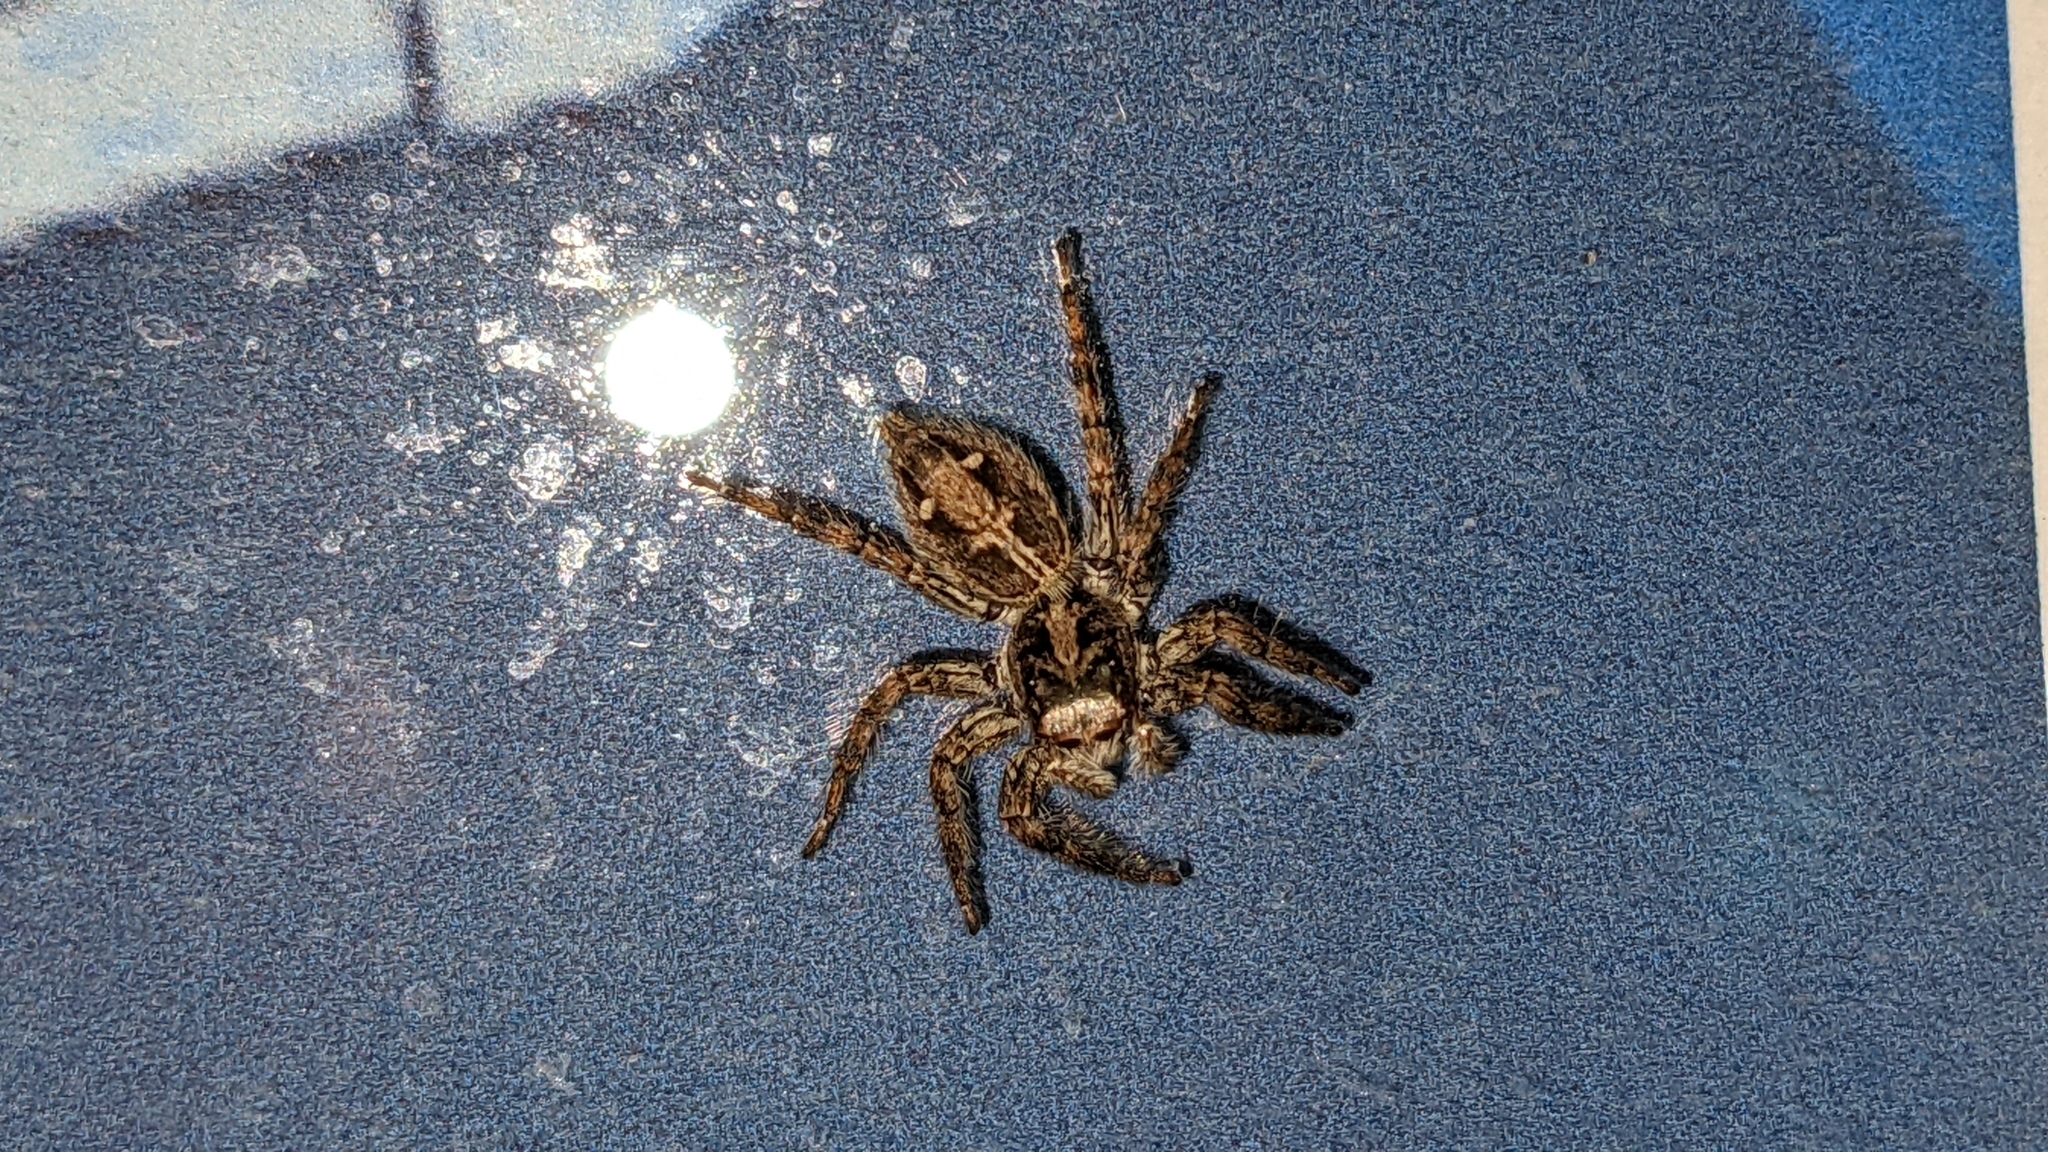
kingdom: Animalia
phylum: Arthropoda
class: Arachnida
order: Araneae
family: Salticidae
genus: Plexippus
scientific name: Plexippus paykulli
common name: Pantropical jumper
